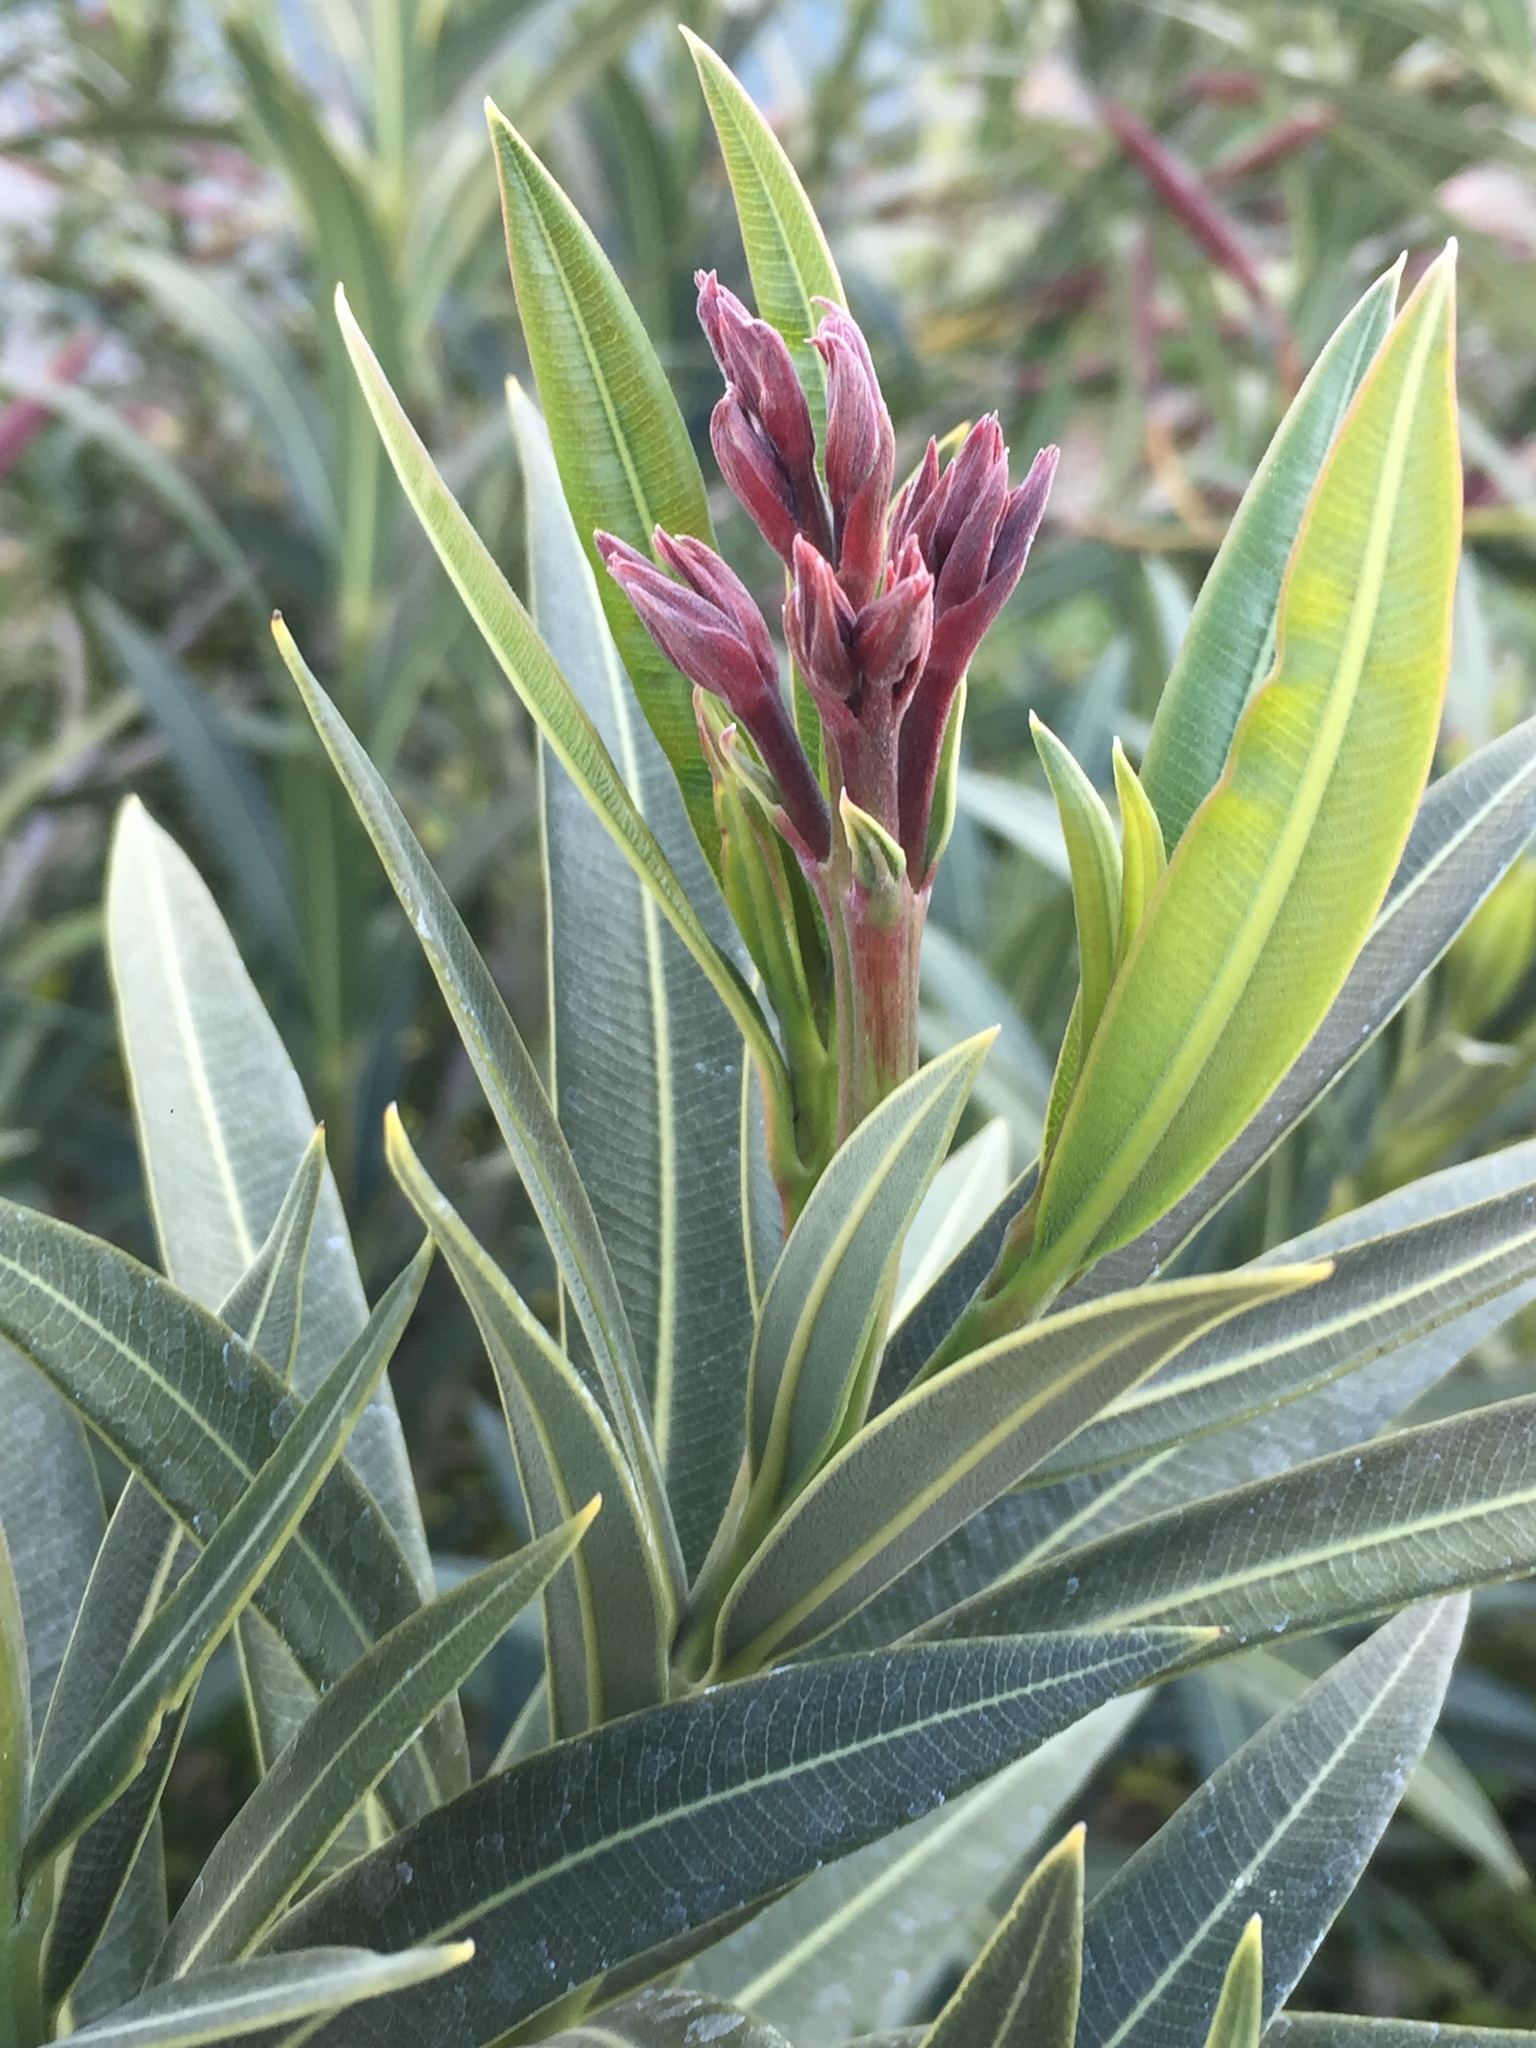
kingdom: Plantae
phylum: Tracheophyta
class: Magnoliopsida
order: Gentianales
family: Apocynaceae
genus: Nerium
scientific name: Nerium oleander
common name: Oleander
